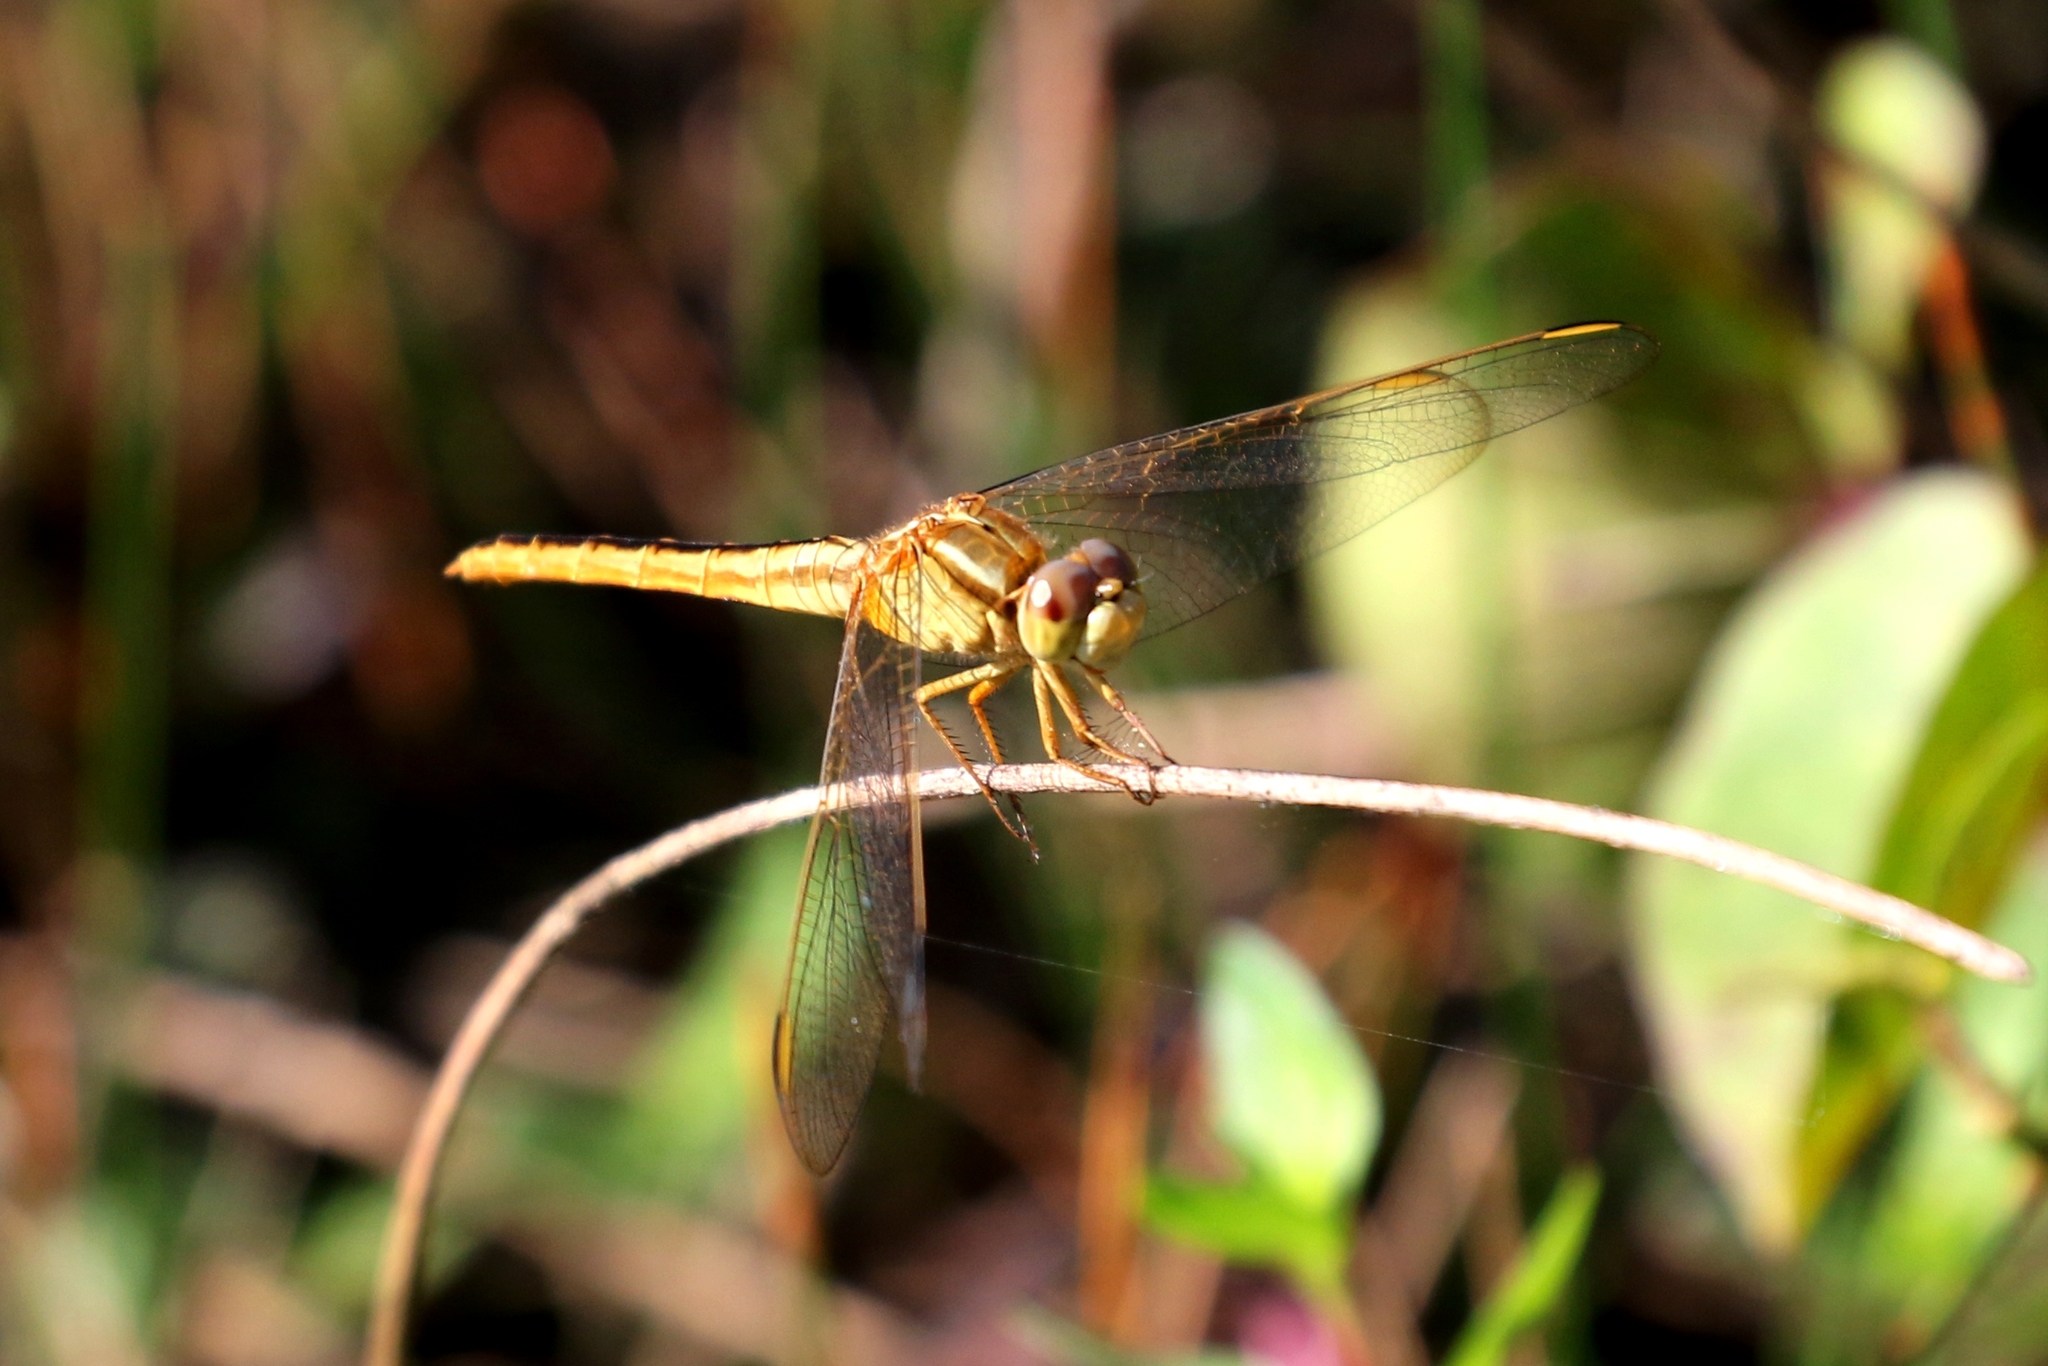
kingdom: Animalia
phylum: Arthropoda
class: Insecta
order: Odonata
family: Libellulidae
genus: Crocothemis
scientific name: Crocothemis servilia
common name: Scarlet skimmer
